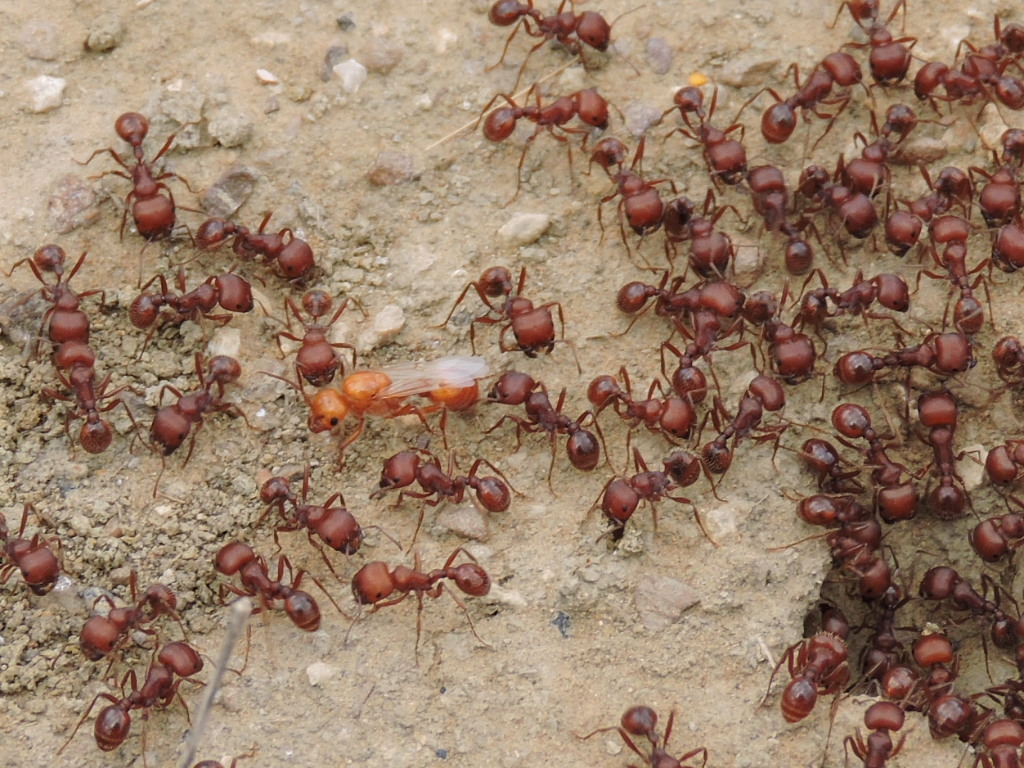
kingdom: Animalia
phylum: Arthropoda
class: Insecta
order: Hymenoptera
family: Formicidae
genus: Pogonomyrmex
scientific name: Pogonomyrmex barbatus
